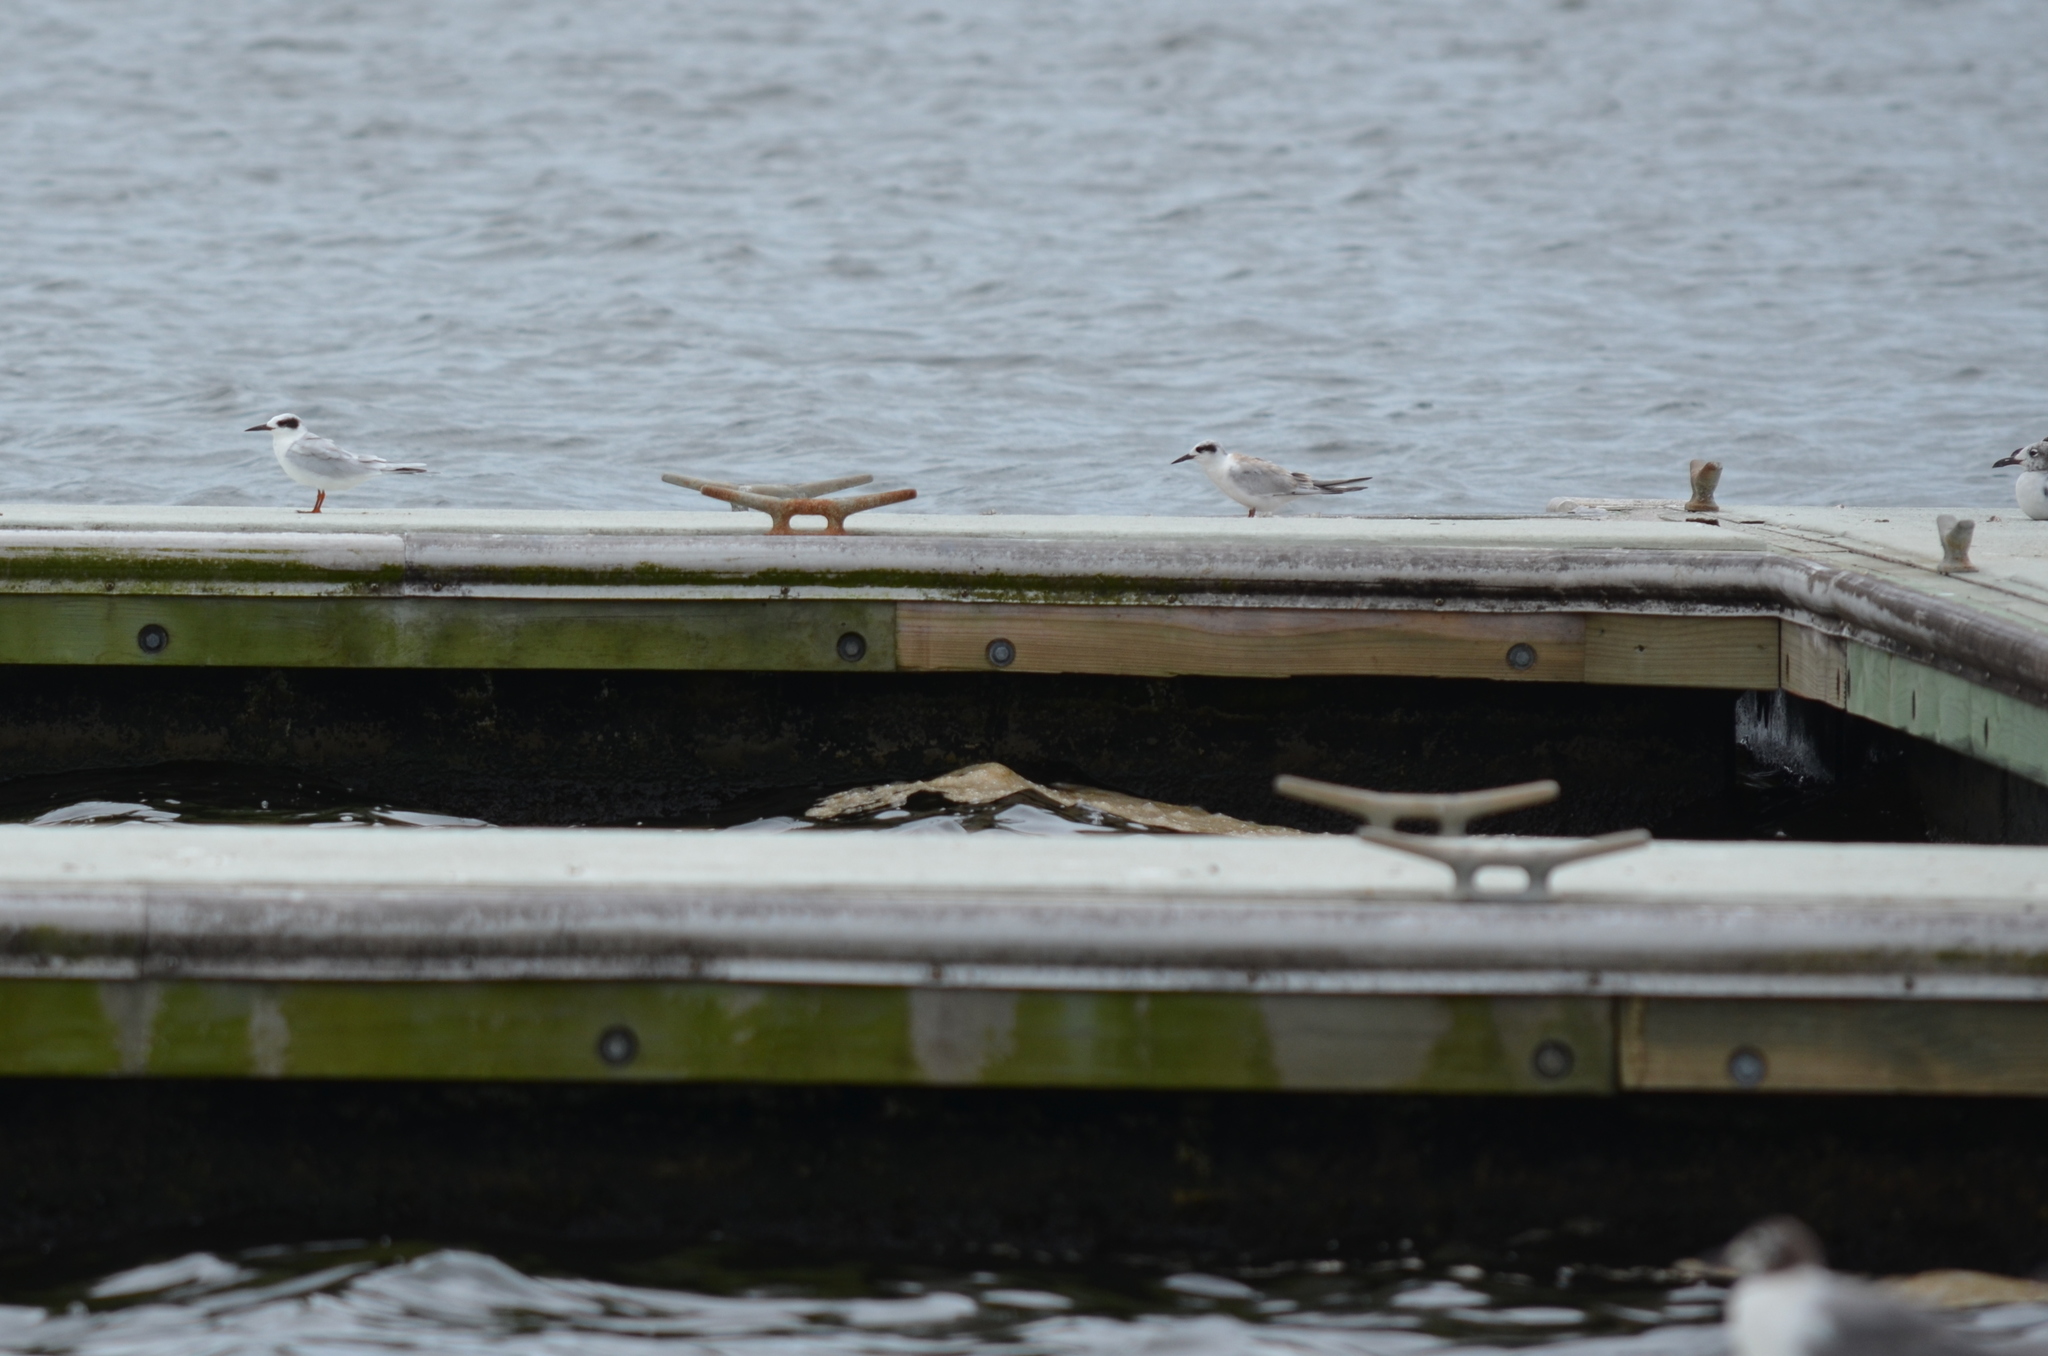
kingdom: Animalia
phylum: Chordata
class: Aves
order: Charadriiformes
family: Laridae
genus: Sterna
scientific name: Sterna forsteri
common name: Forster's tern
